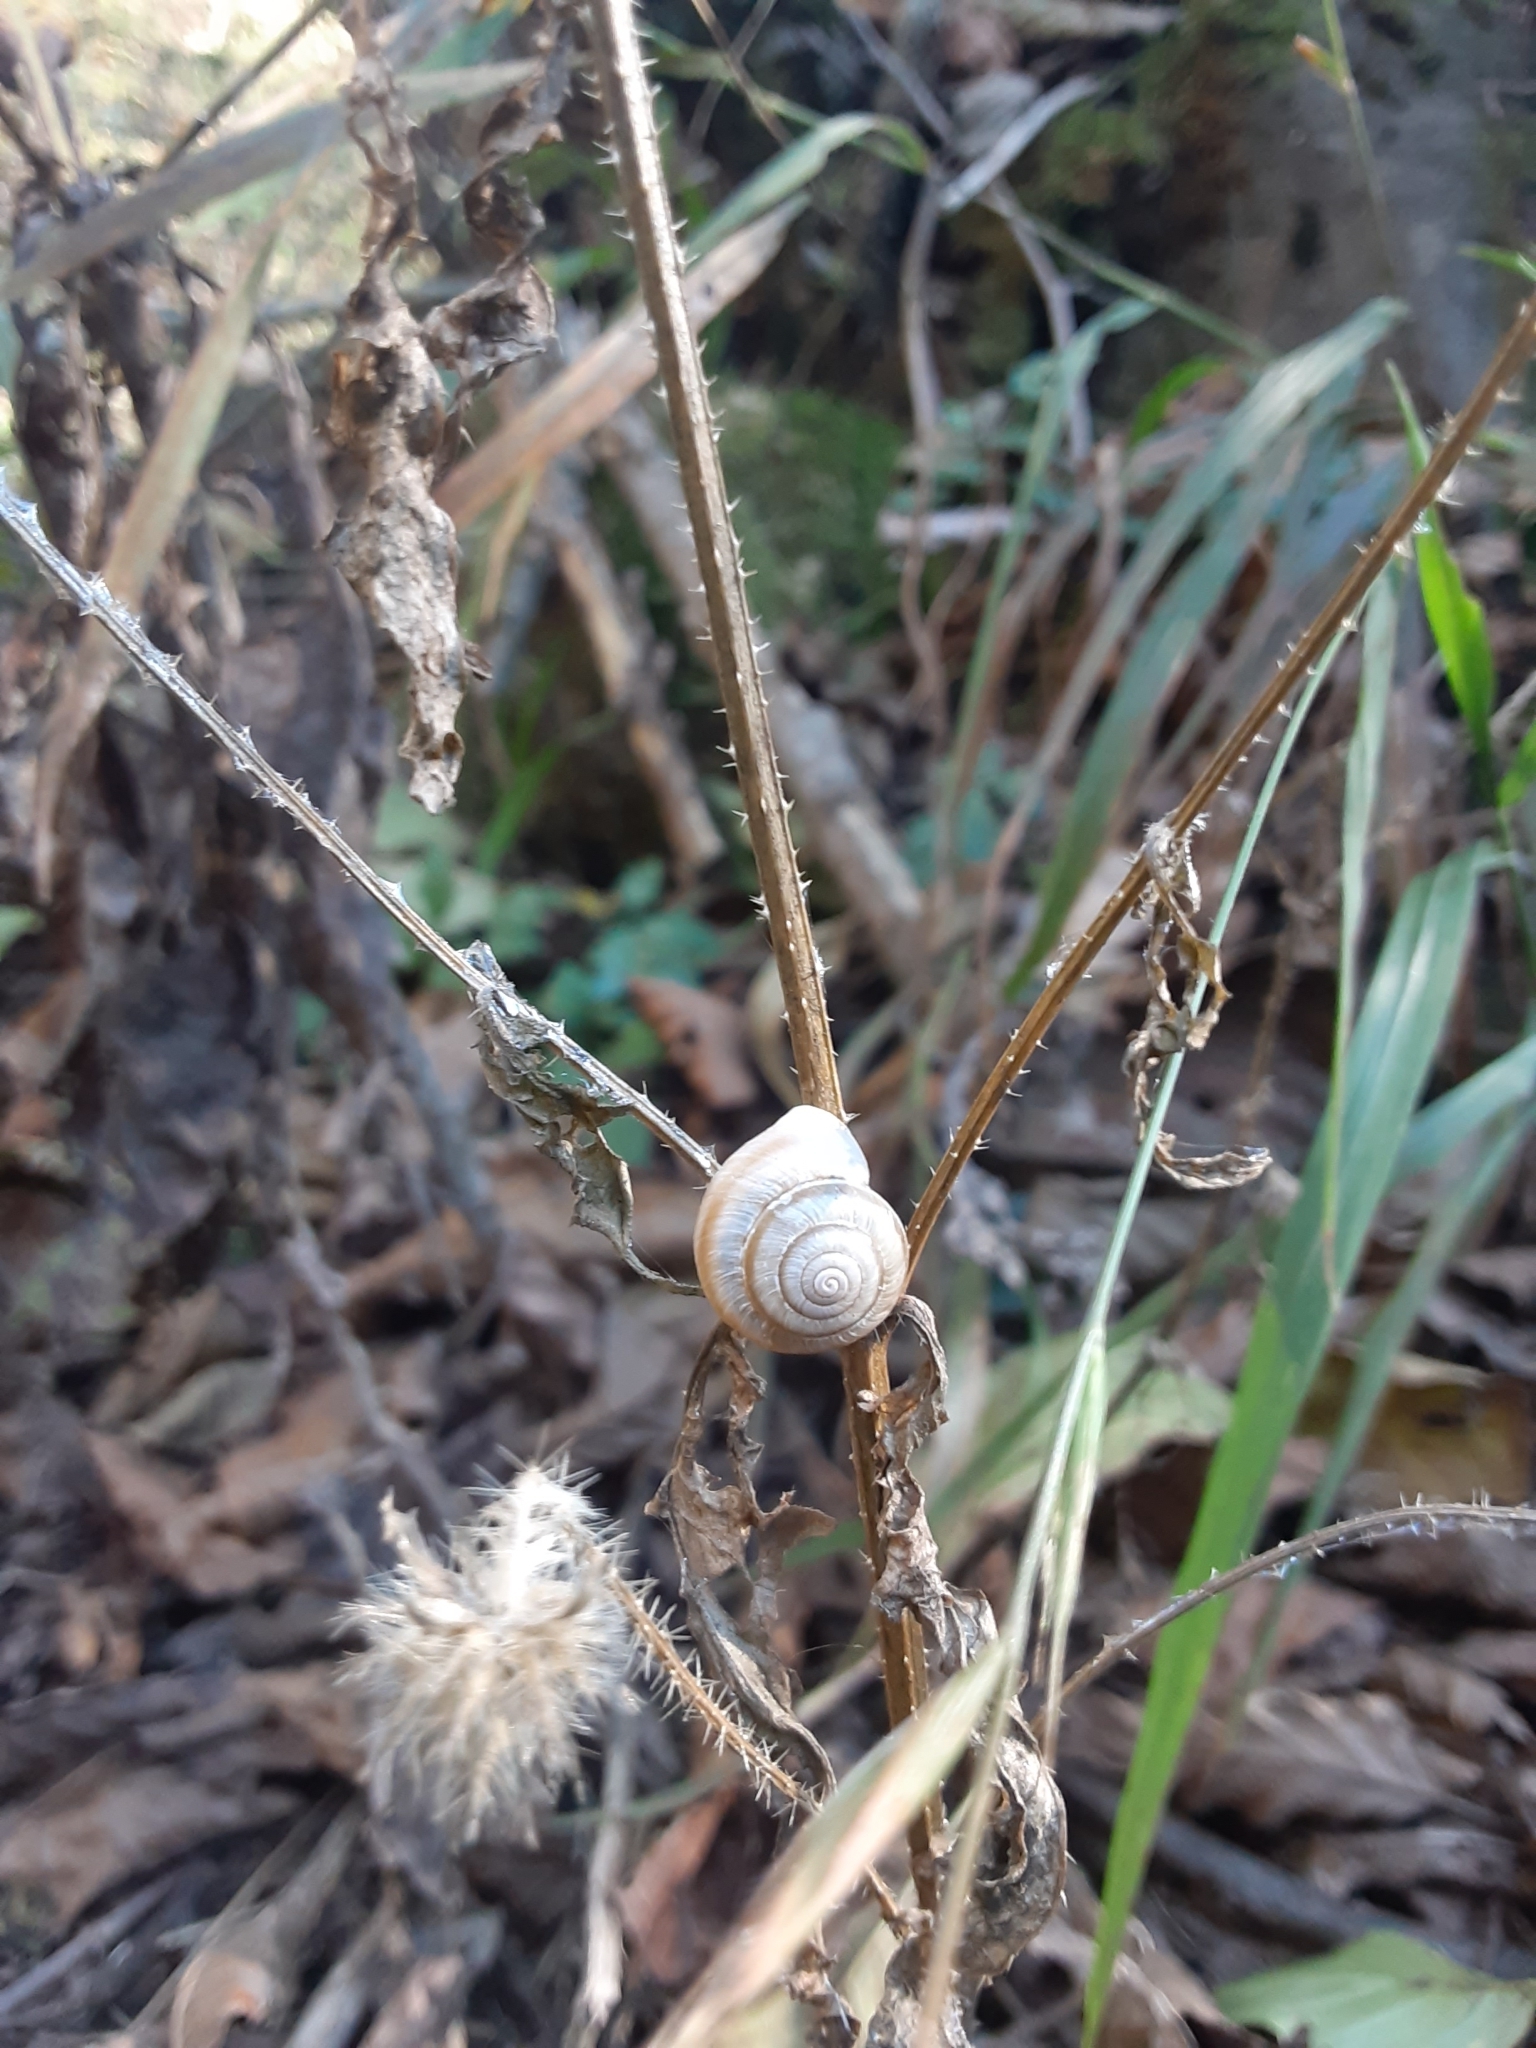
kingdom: Animalia
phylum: Mollusca
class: Gastropoda
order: Stylommatophora
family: Hygromiidae
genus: Hesseola
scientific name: Hesseola pratensis
